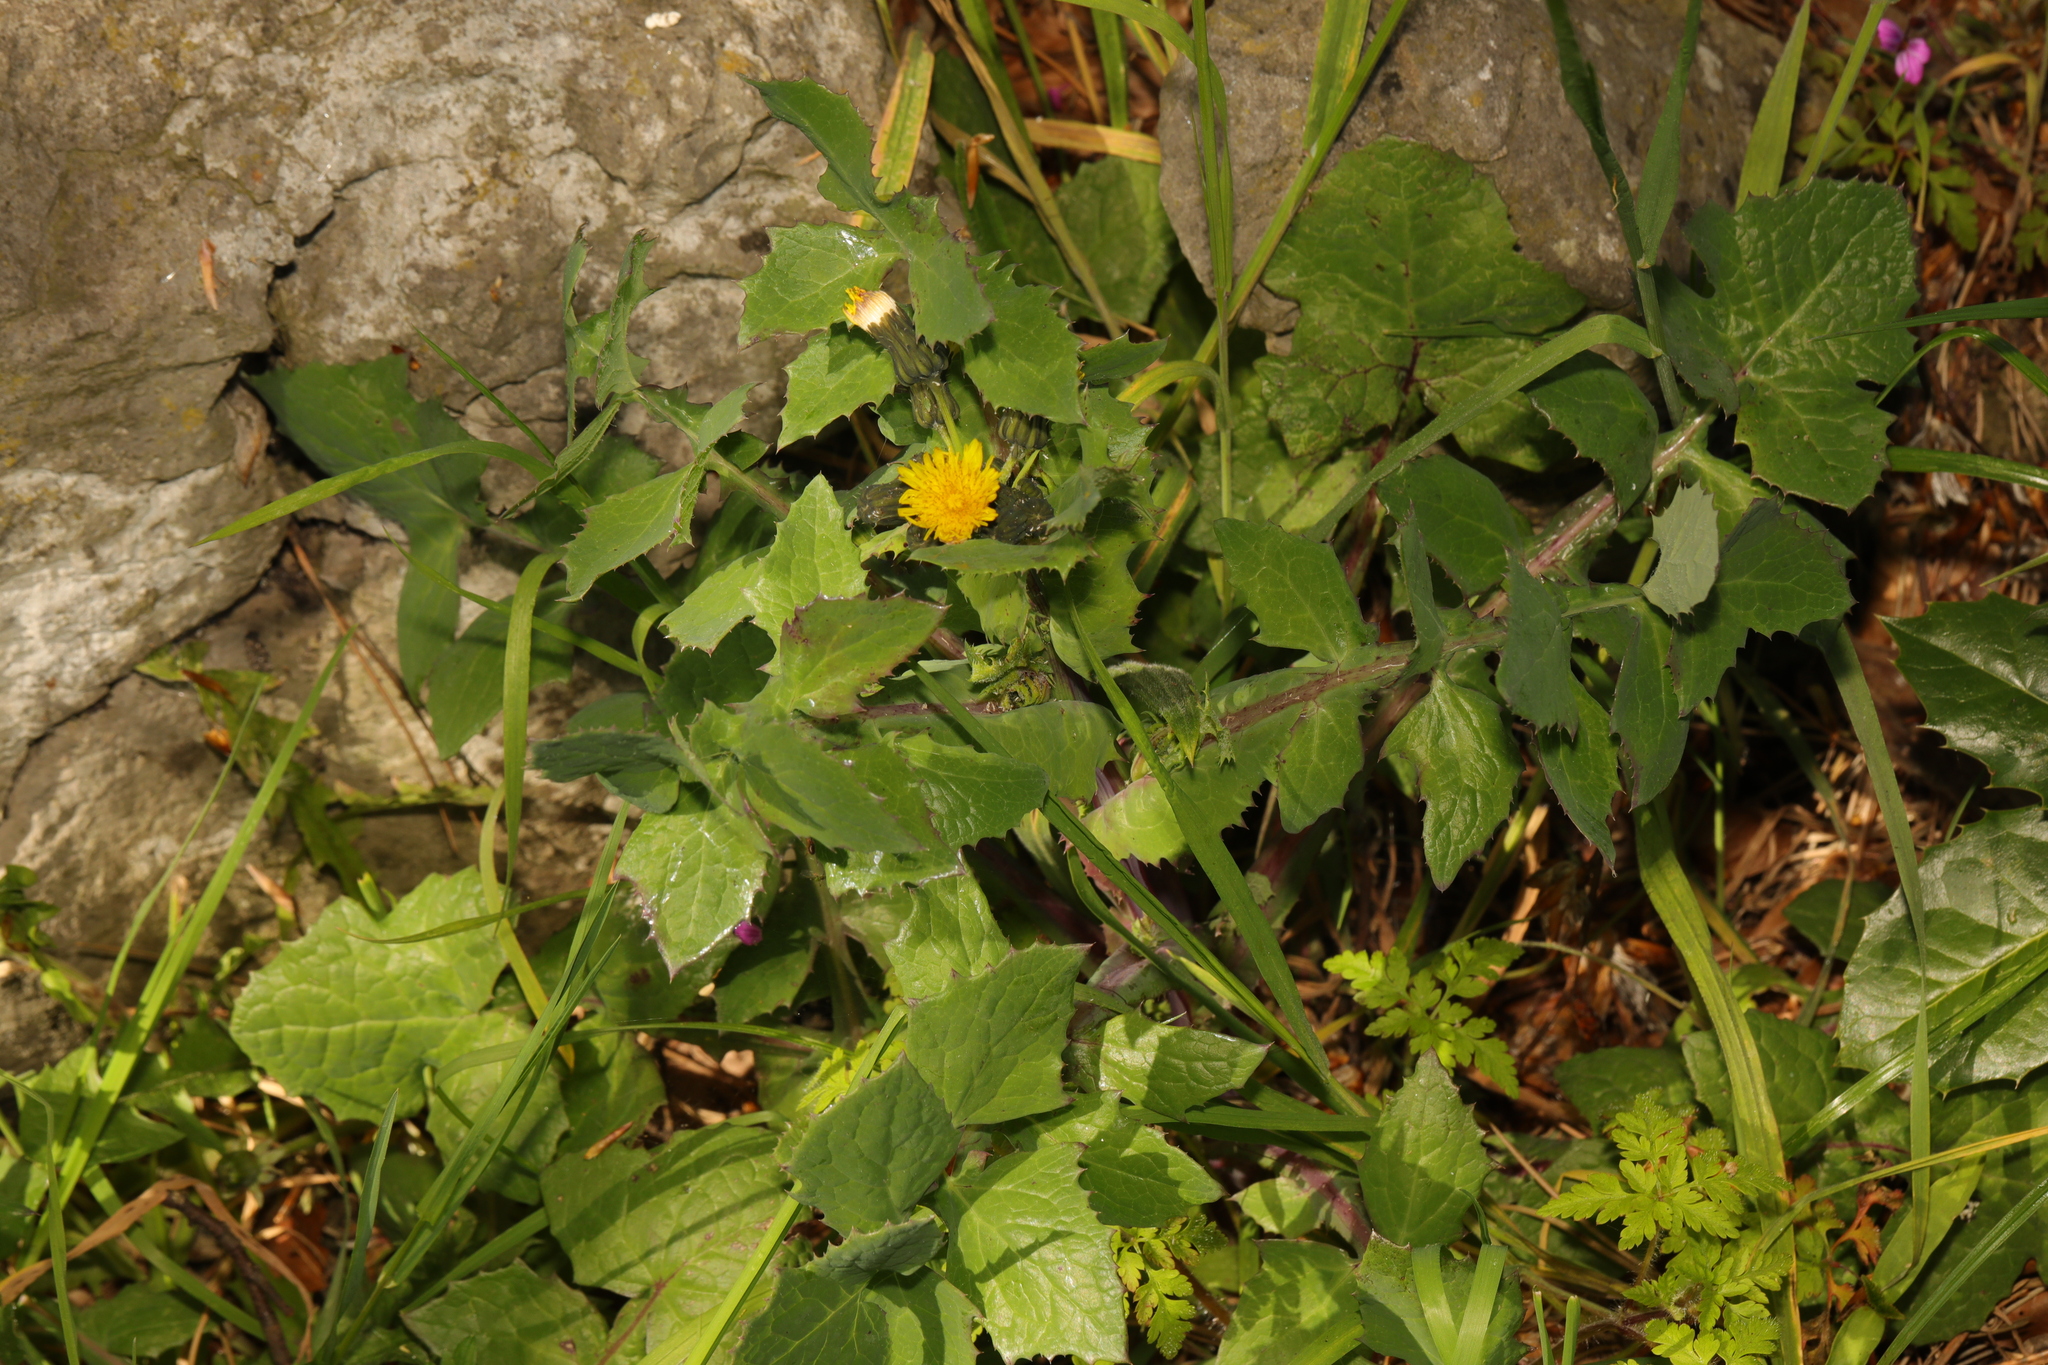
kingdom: Plantae
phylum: Tracheophyta
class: Magnoliopsida
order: Asterales
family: Asteraceae
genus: Sonchus
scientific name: Sonchus oleraceus
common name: Common sowthistle
